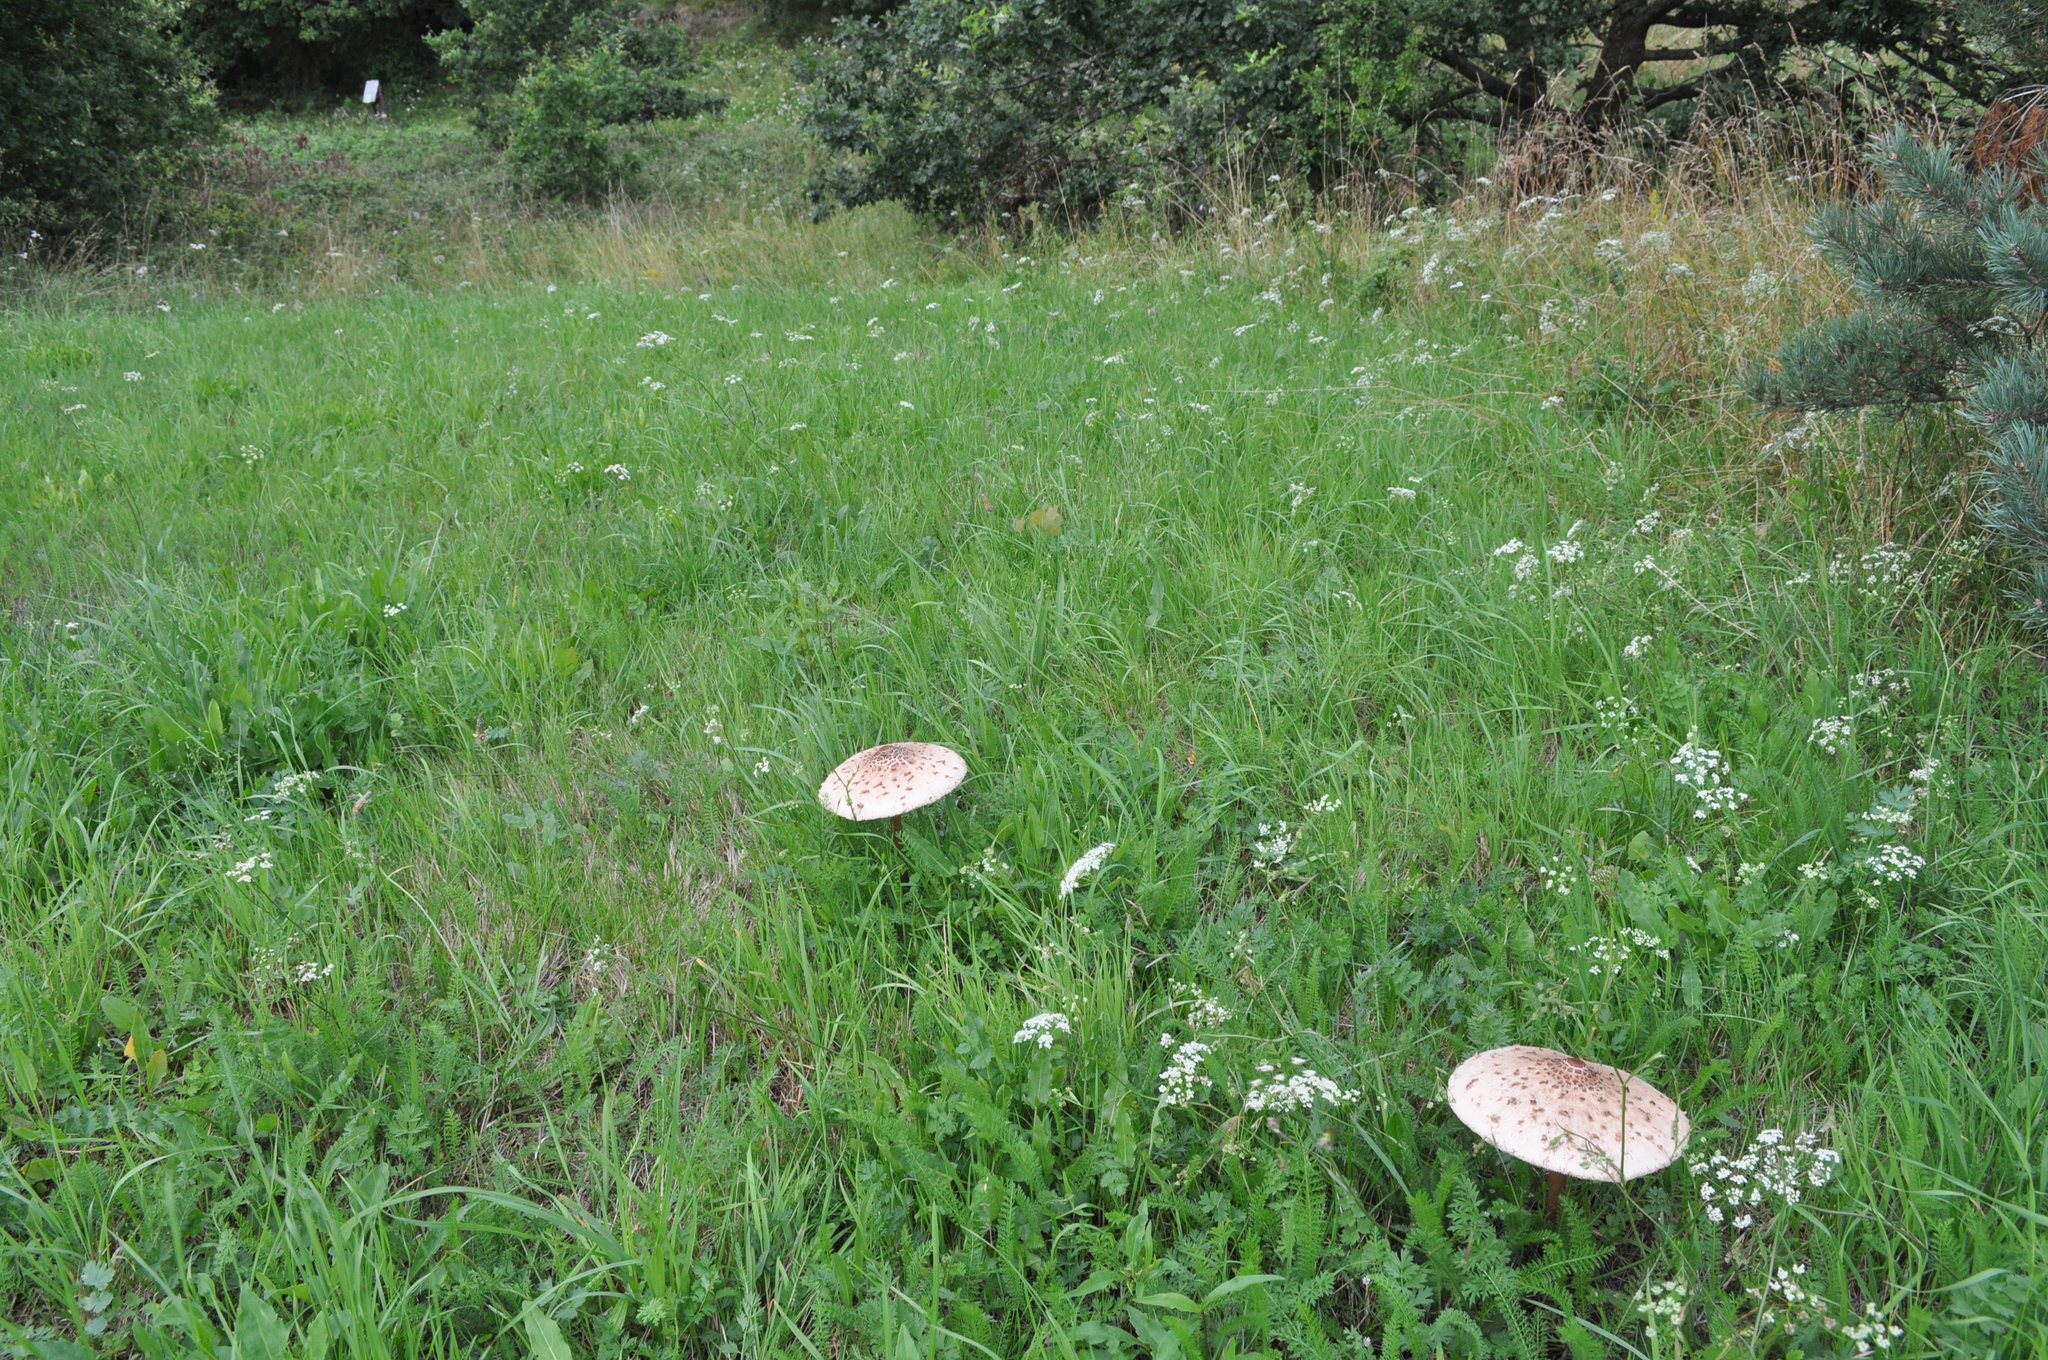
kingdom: Fungi
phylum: Basidiomycota
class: Agaricomycetes
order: Agaricales
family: Agaricaceae
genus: Macrolepiota
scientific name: Macrolepiota procera
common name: Parasol
